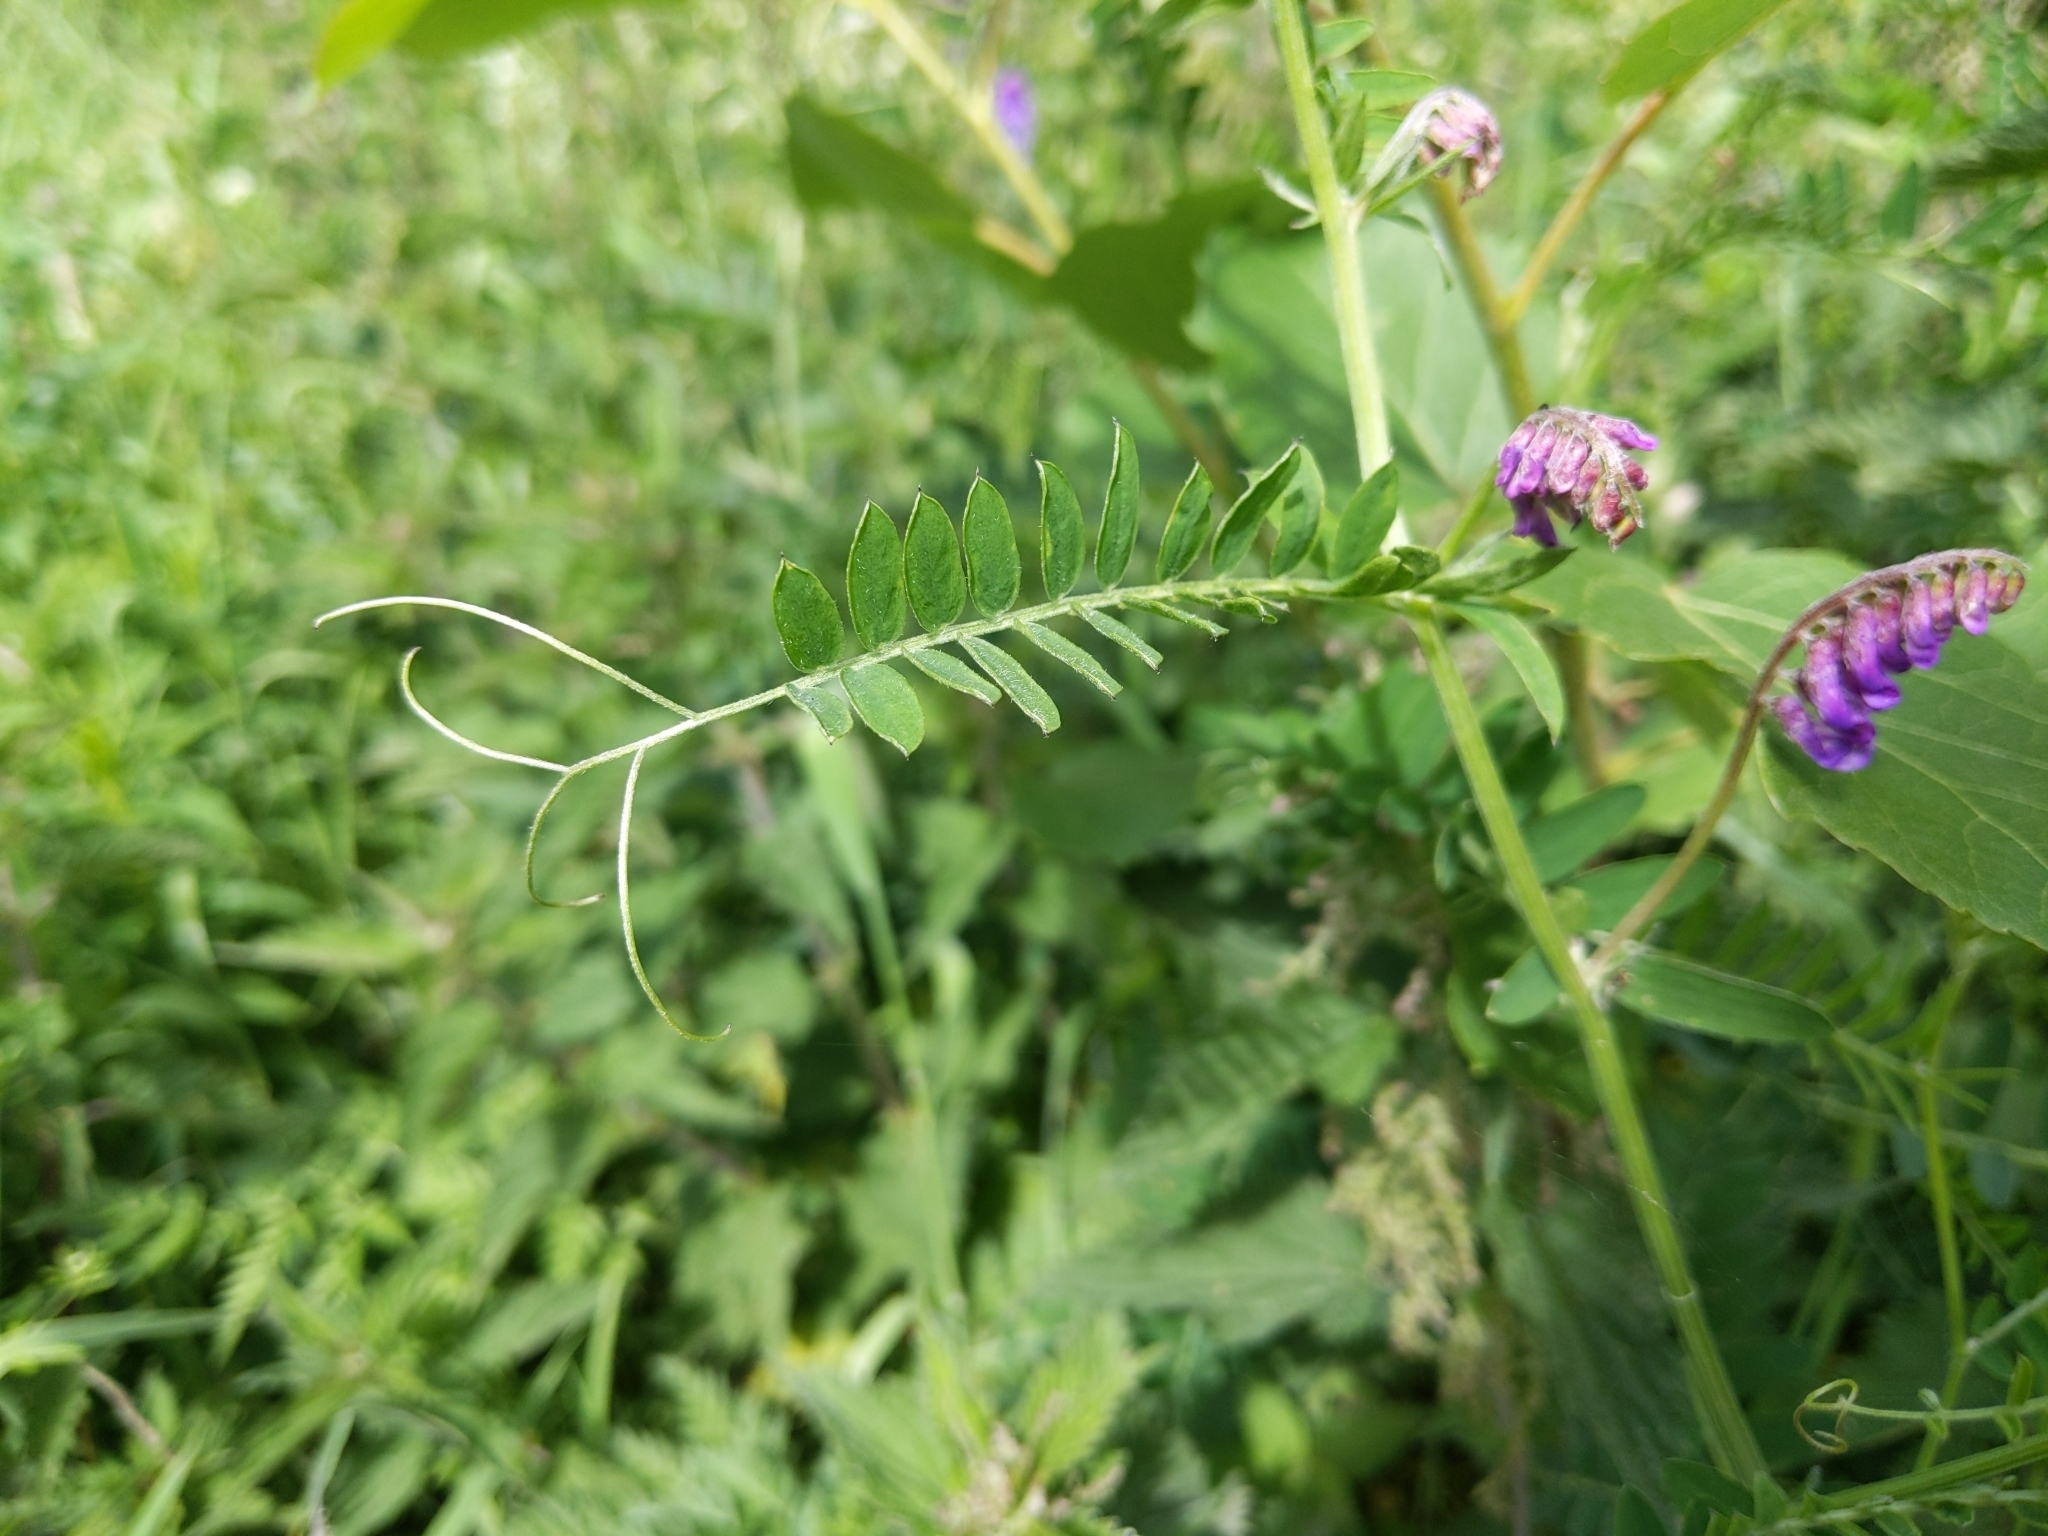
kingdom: Plantae
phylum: Tracheophyta
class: Magnoliopsida
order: Fabales
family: Fabaceae
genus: Vicia
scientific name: Vicia cracca
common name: Bird vetch
